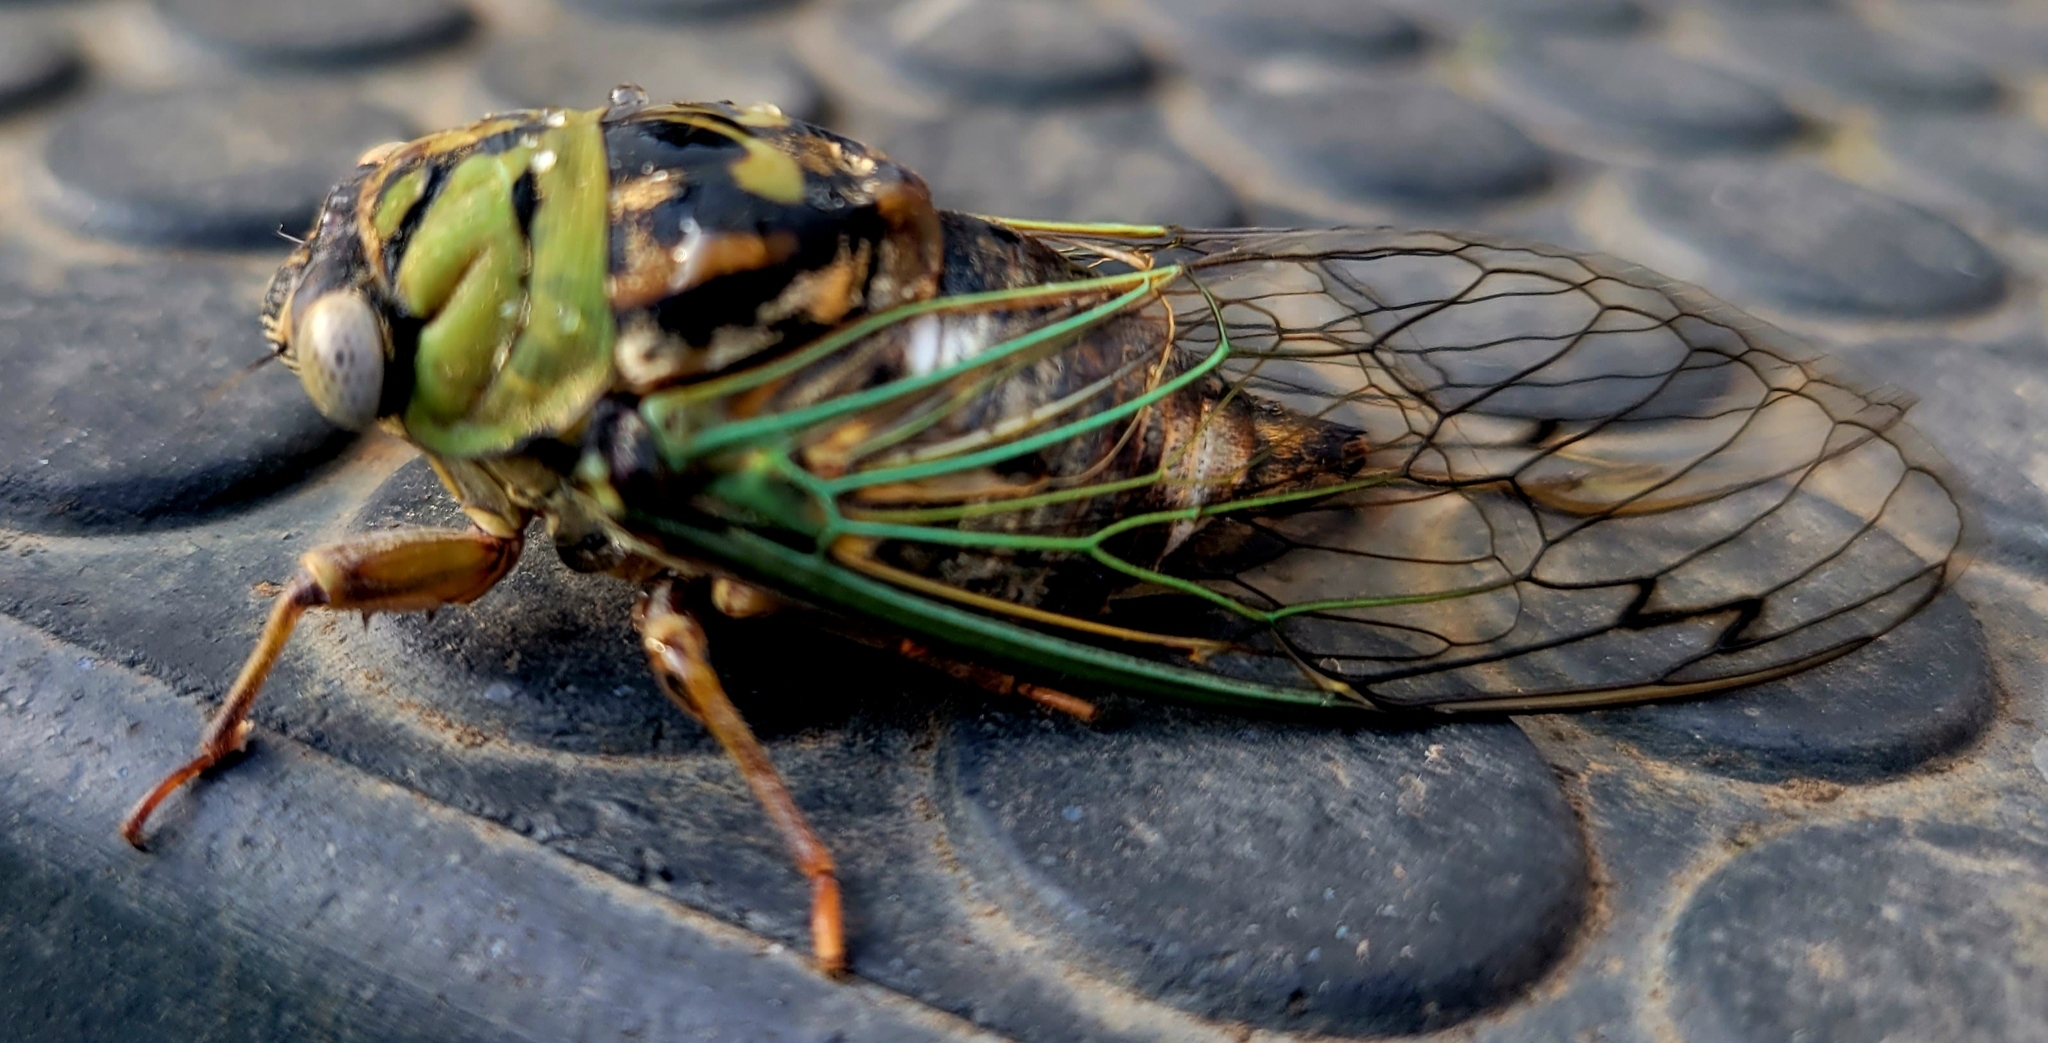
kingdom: Animalia
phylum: Arthropoda
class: Insecta
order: Hemiptera
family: Cicadidae
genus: Megatibicen
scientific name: Megatibicen resh
